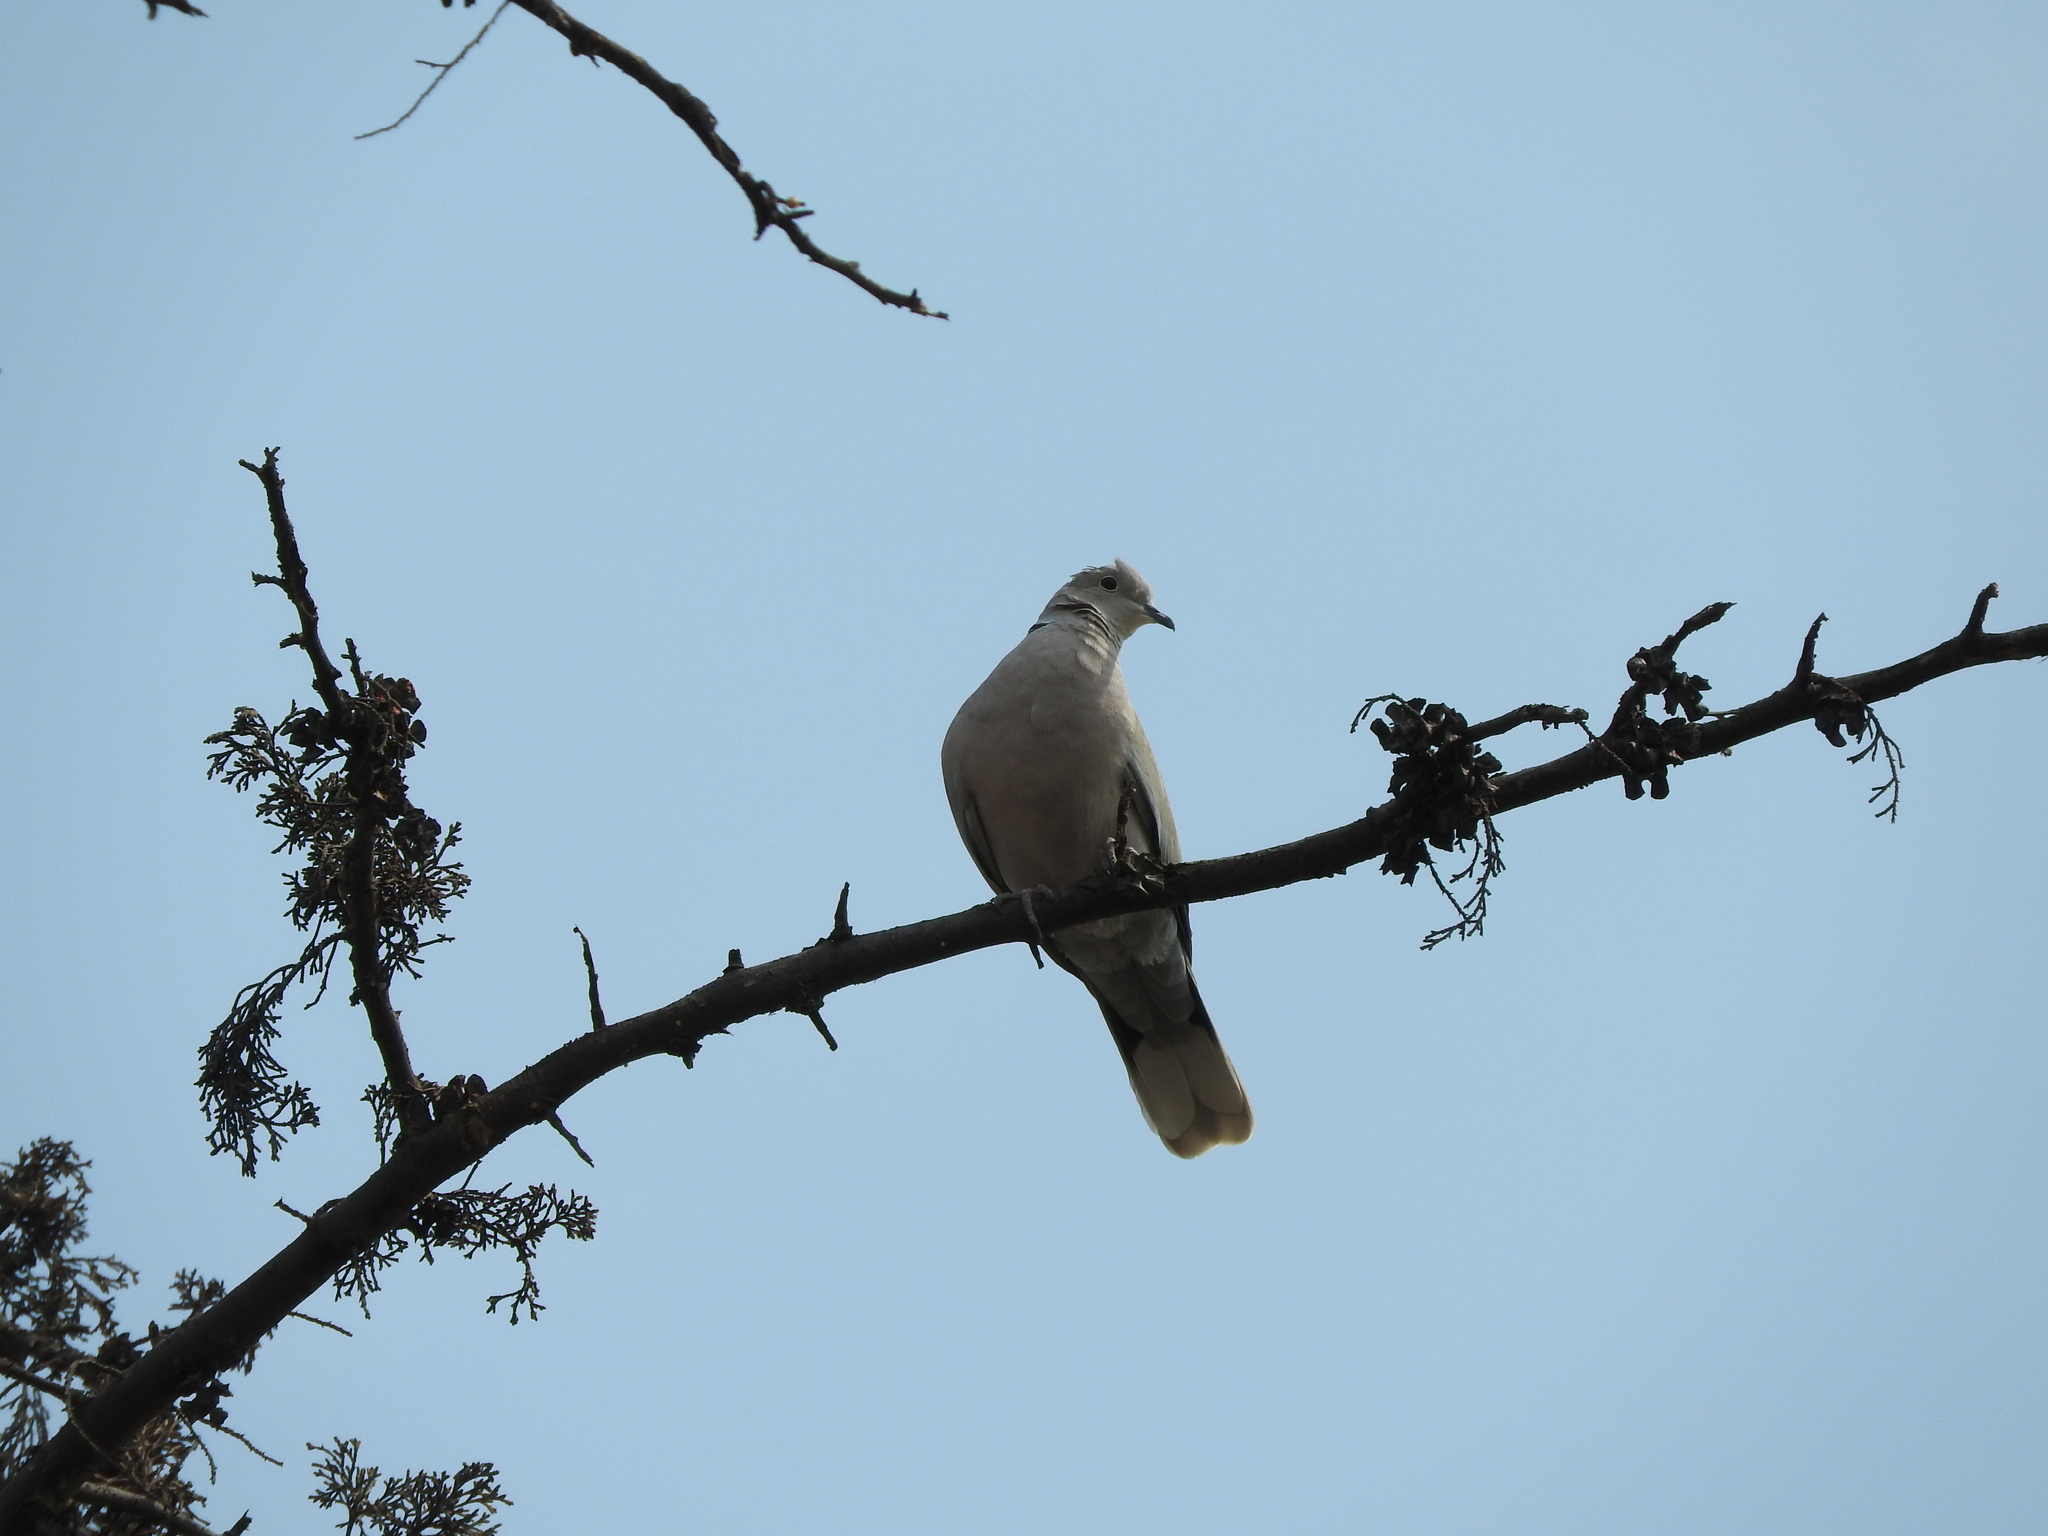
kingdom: Animalia
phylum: Chordata
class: Aves
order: Columbiformes
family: Columbidae
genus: Streptopelia
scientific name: Streptopelia decaocto
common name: Eurasian collared dove
